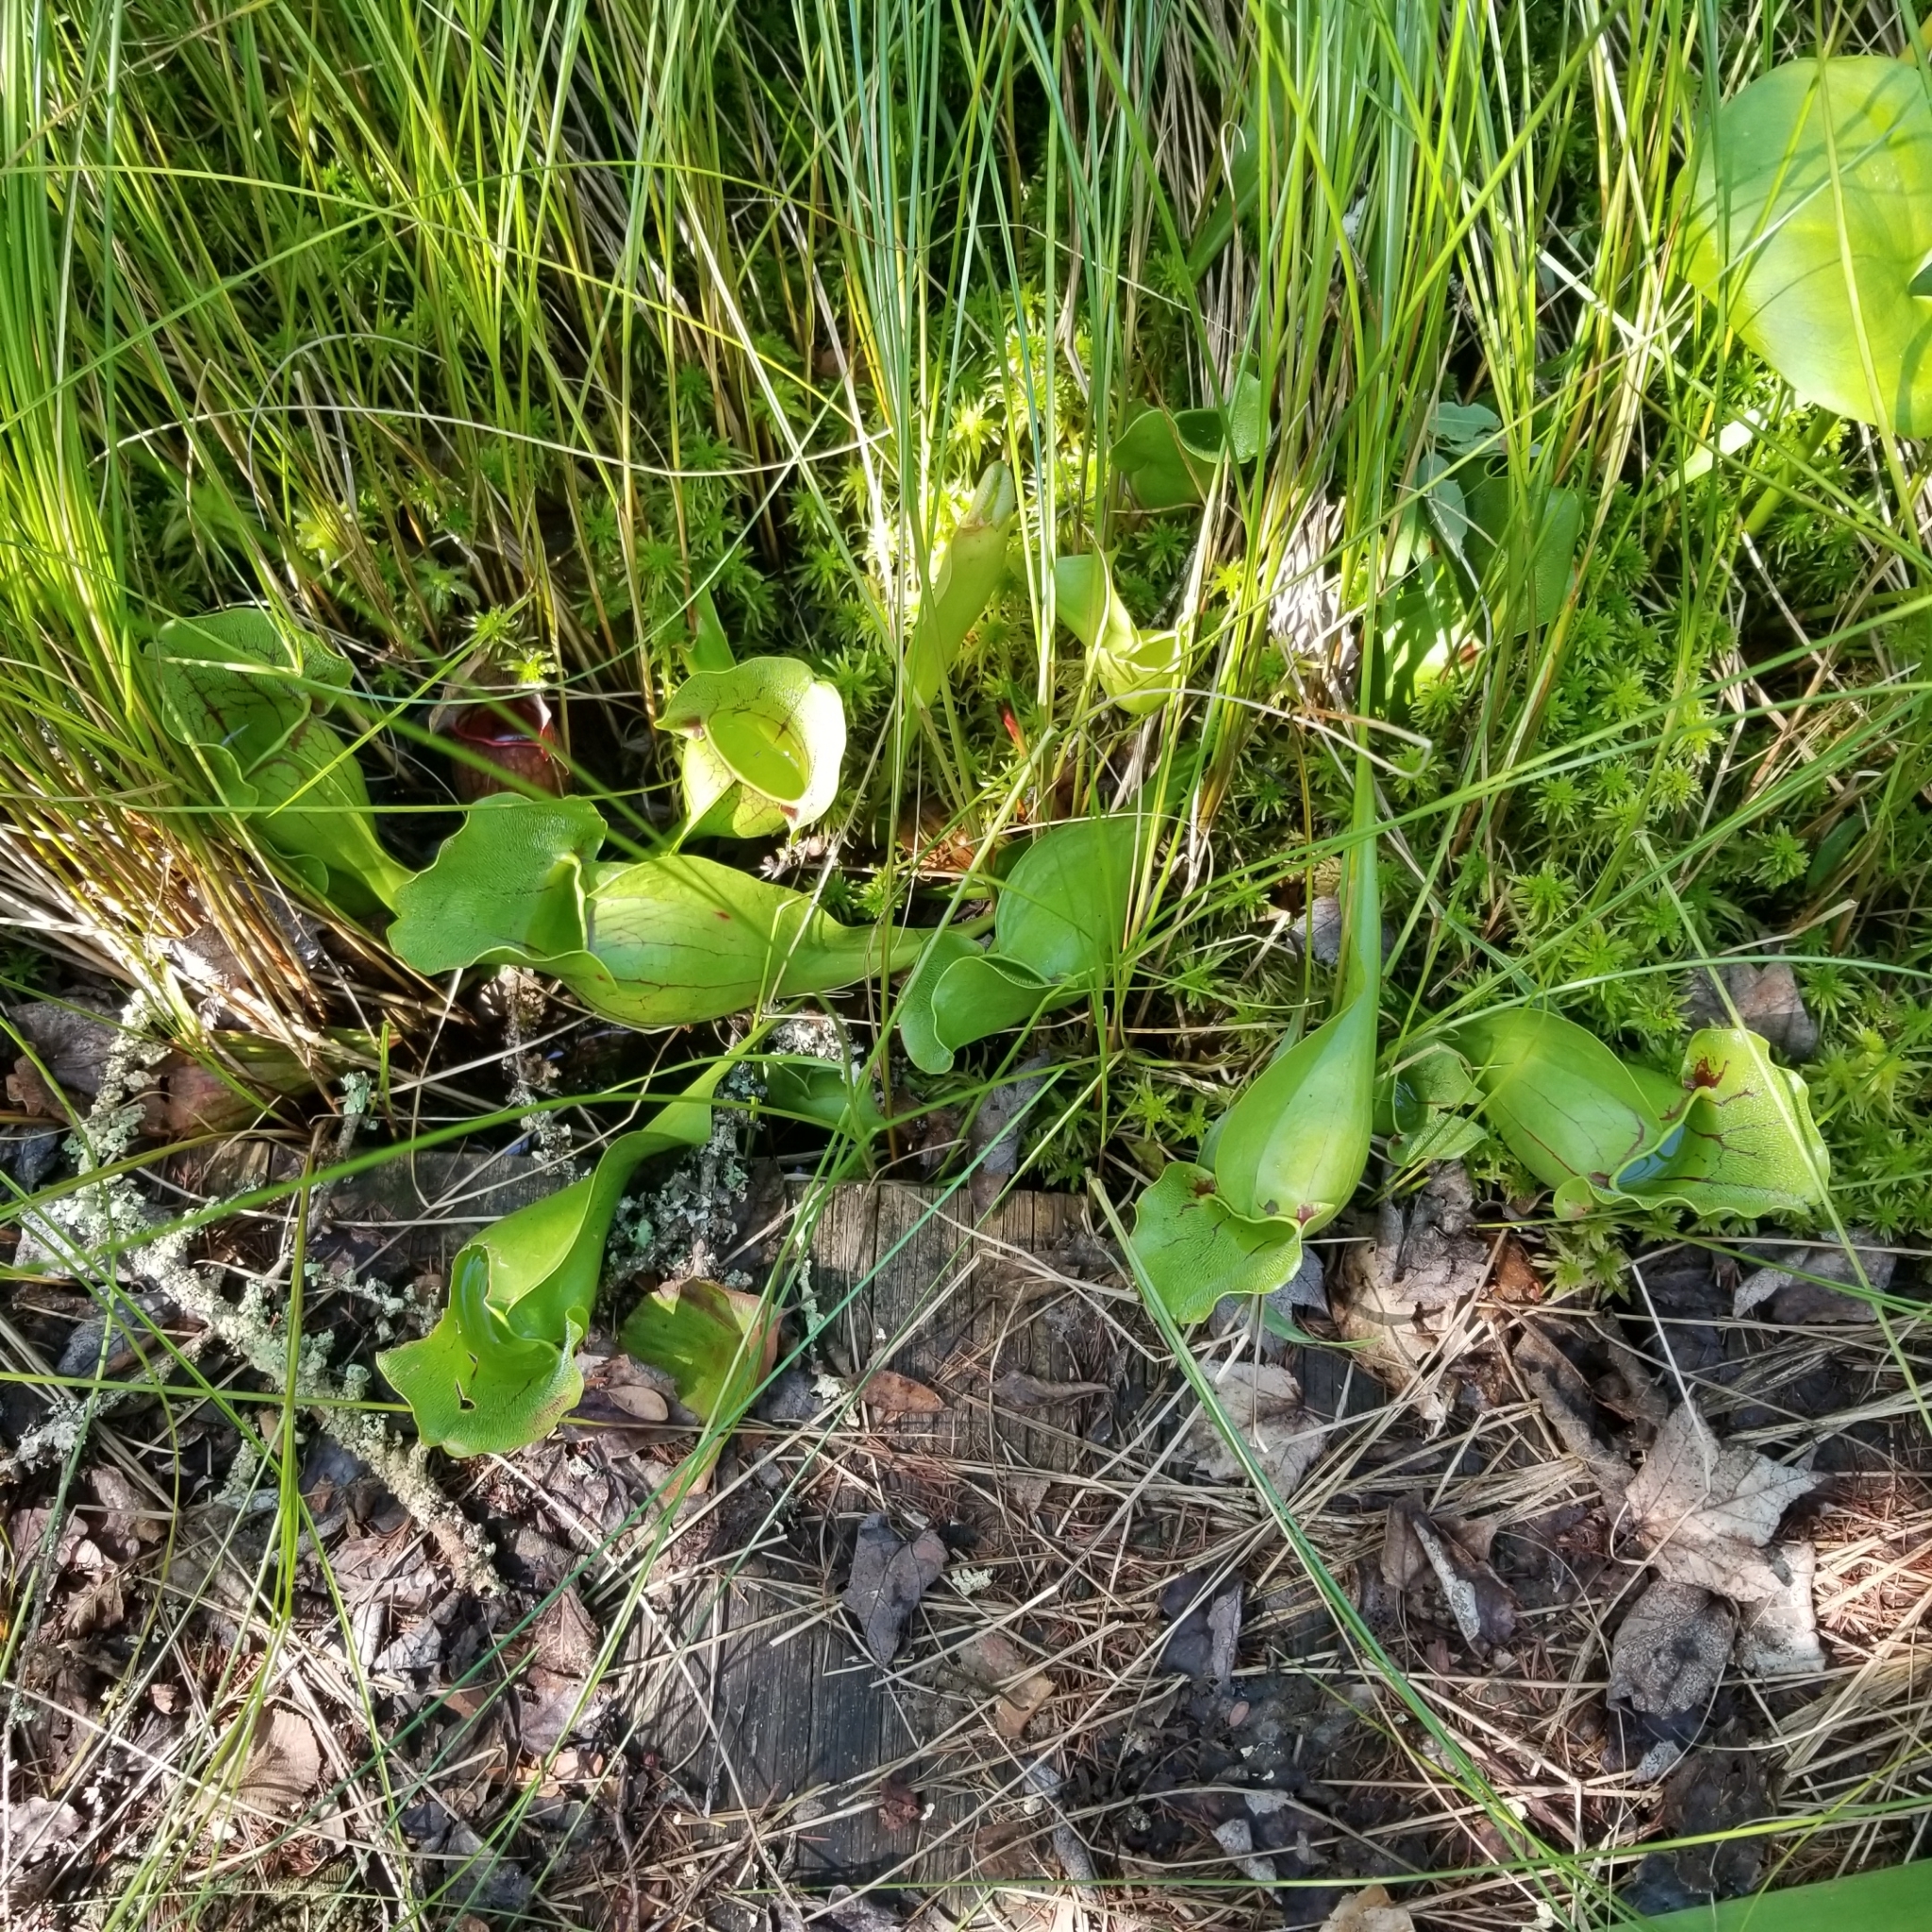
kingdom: Plantae
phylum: Tracheophyta
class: Magnoliopsida
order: Ericales
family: Sarraceniaceae
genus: Sarracenia
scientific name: Sarracenia purpurea
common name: Pitcherplant
